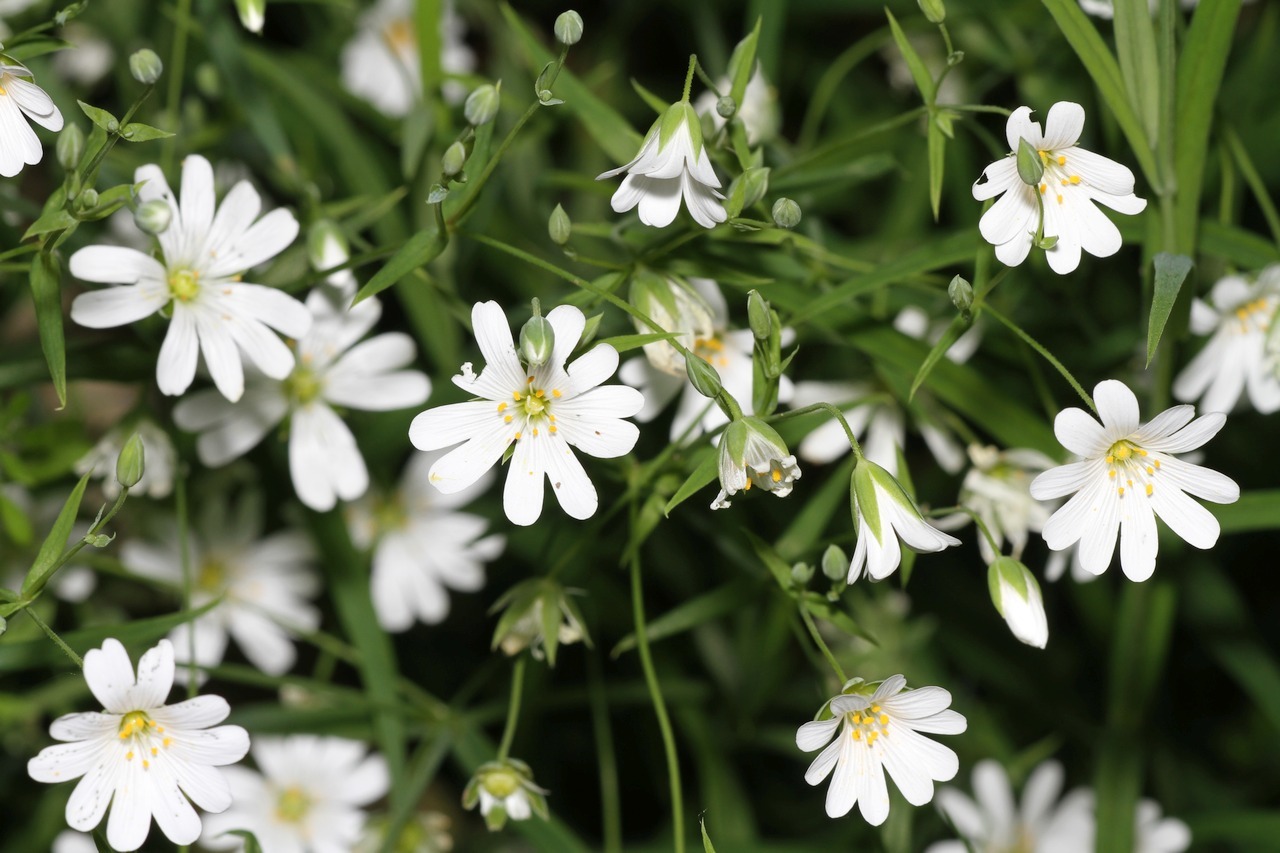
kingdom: Plantae
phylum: Tracheophyta
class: Magnoliopsida
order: Caryophyllales
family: Caryophyllaceae
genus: Rabelera
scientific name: Rabelera holostea
